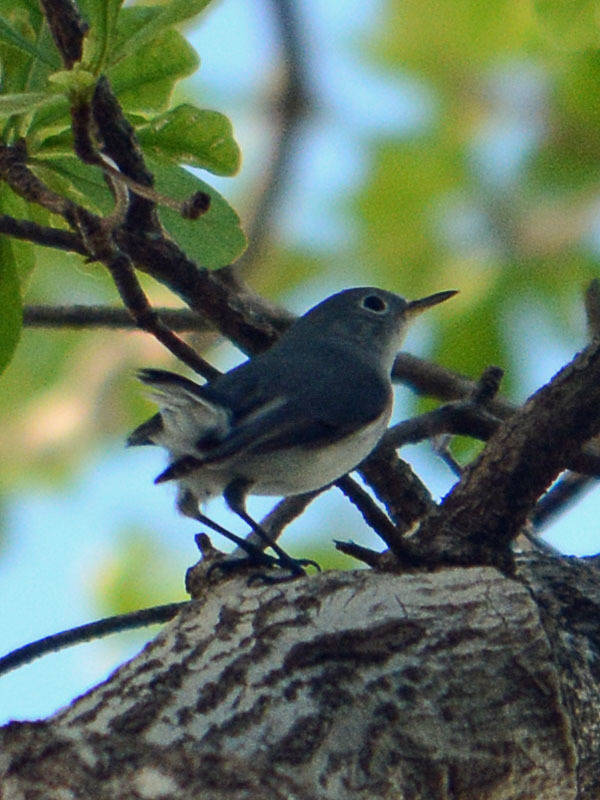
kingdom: Animalia
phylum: Chordata
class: Aves
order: Passeriformes
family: Polioptilidae
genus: Polioptila
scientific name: Polioptila caerulea
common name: Blue-gray gnatcatcher
